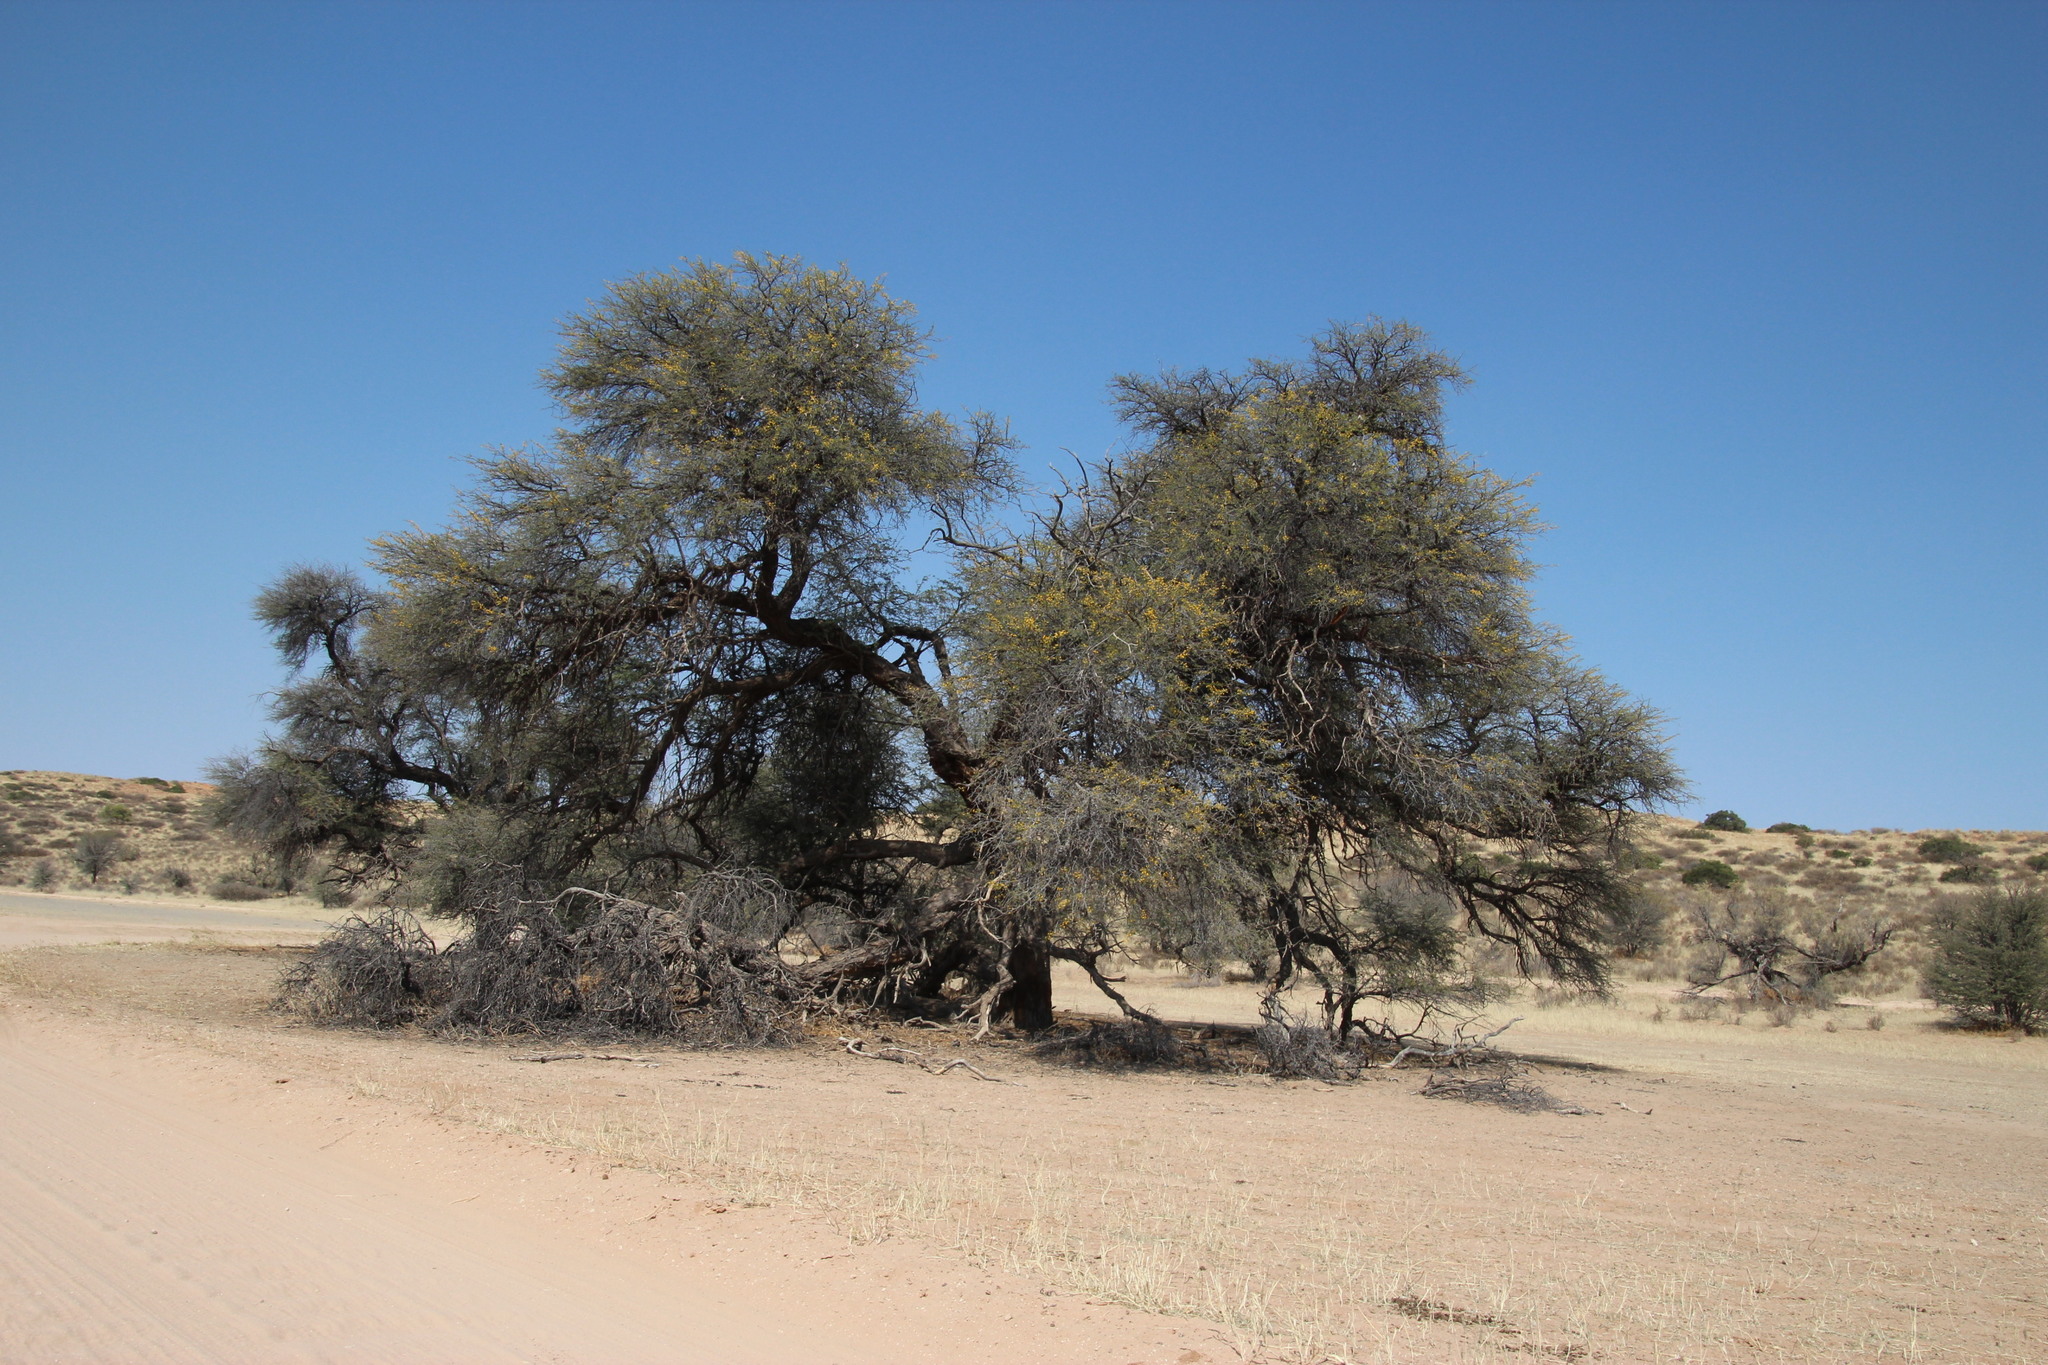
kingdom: Plantae
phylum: Tracheophyta
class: Magnoliopsida
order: Fabales
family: Fabaceae
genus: Vachellia
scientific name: Vachellia erioloba
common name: Camel thorn
